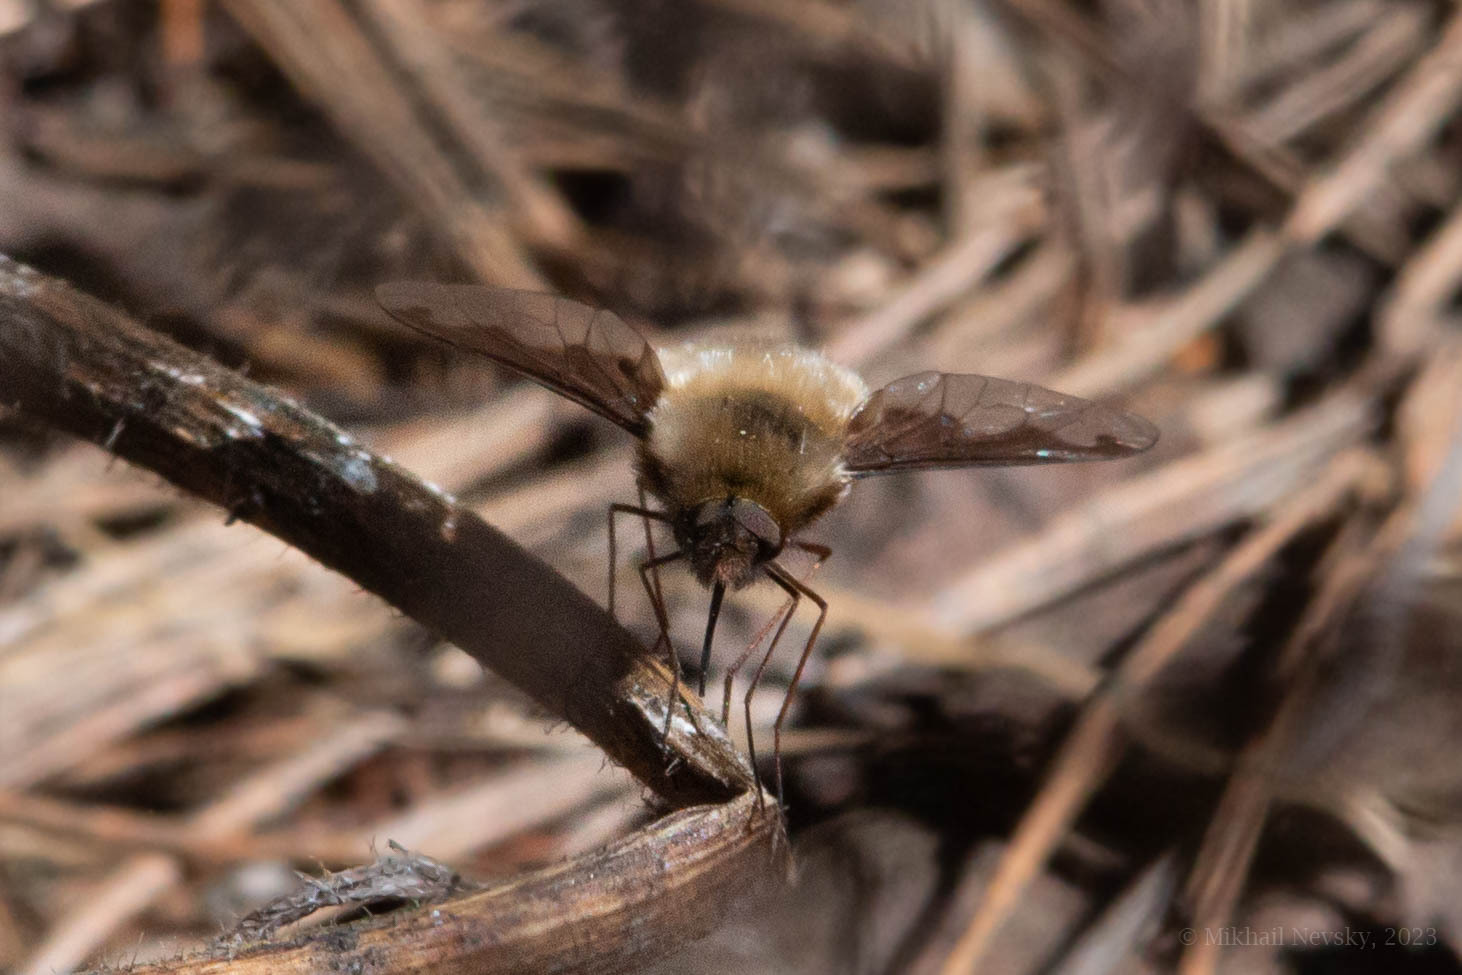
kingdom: Animalia
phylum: Arthropoda
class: Insecta
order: Diptera
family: Bombyliidae
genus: Bombylius
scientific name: Bombylius major
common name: Bee fly
